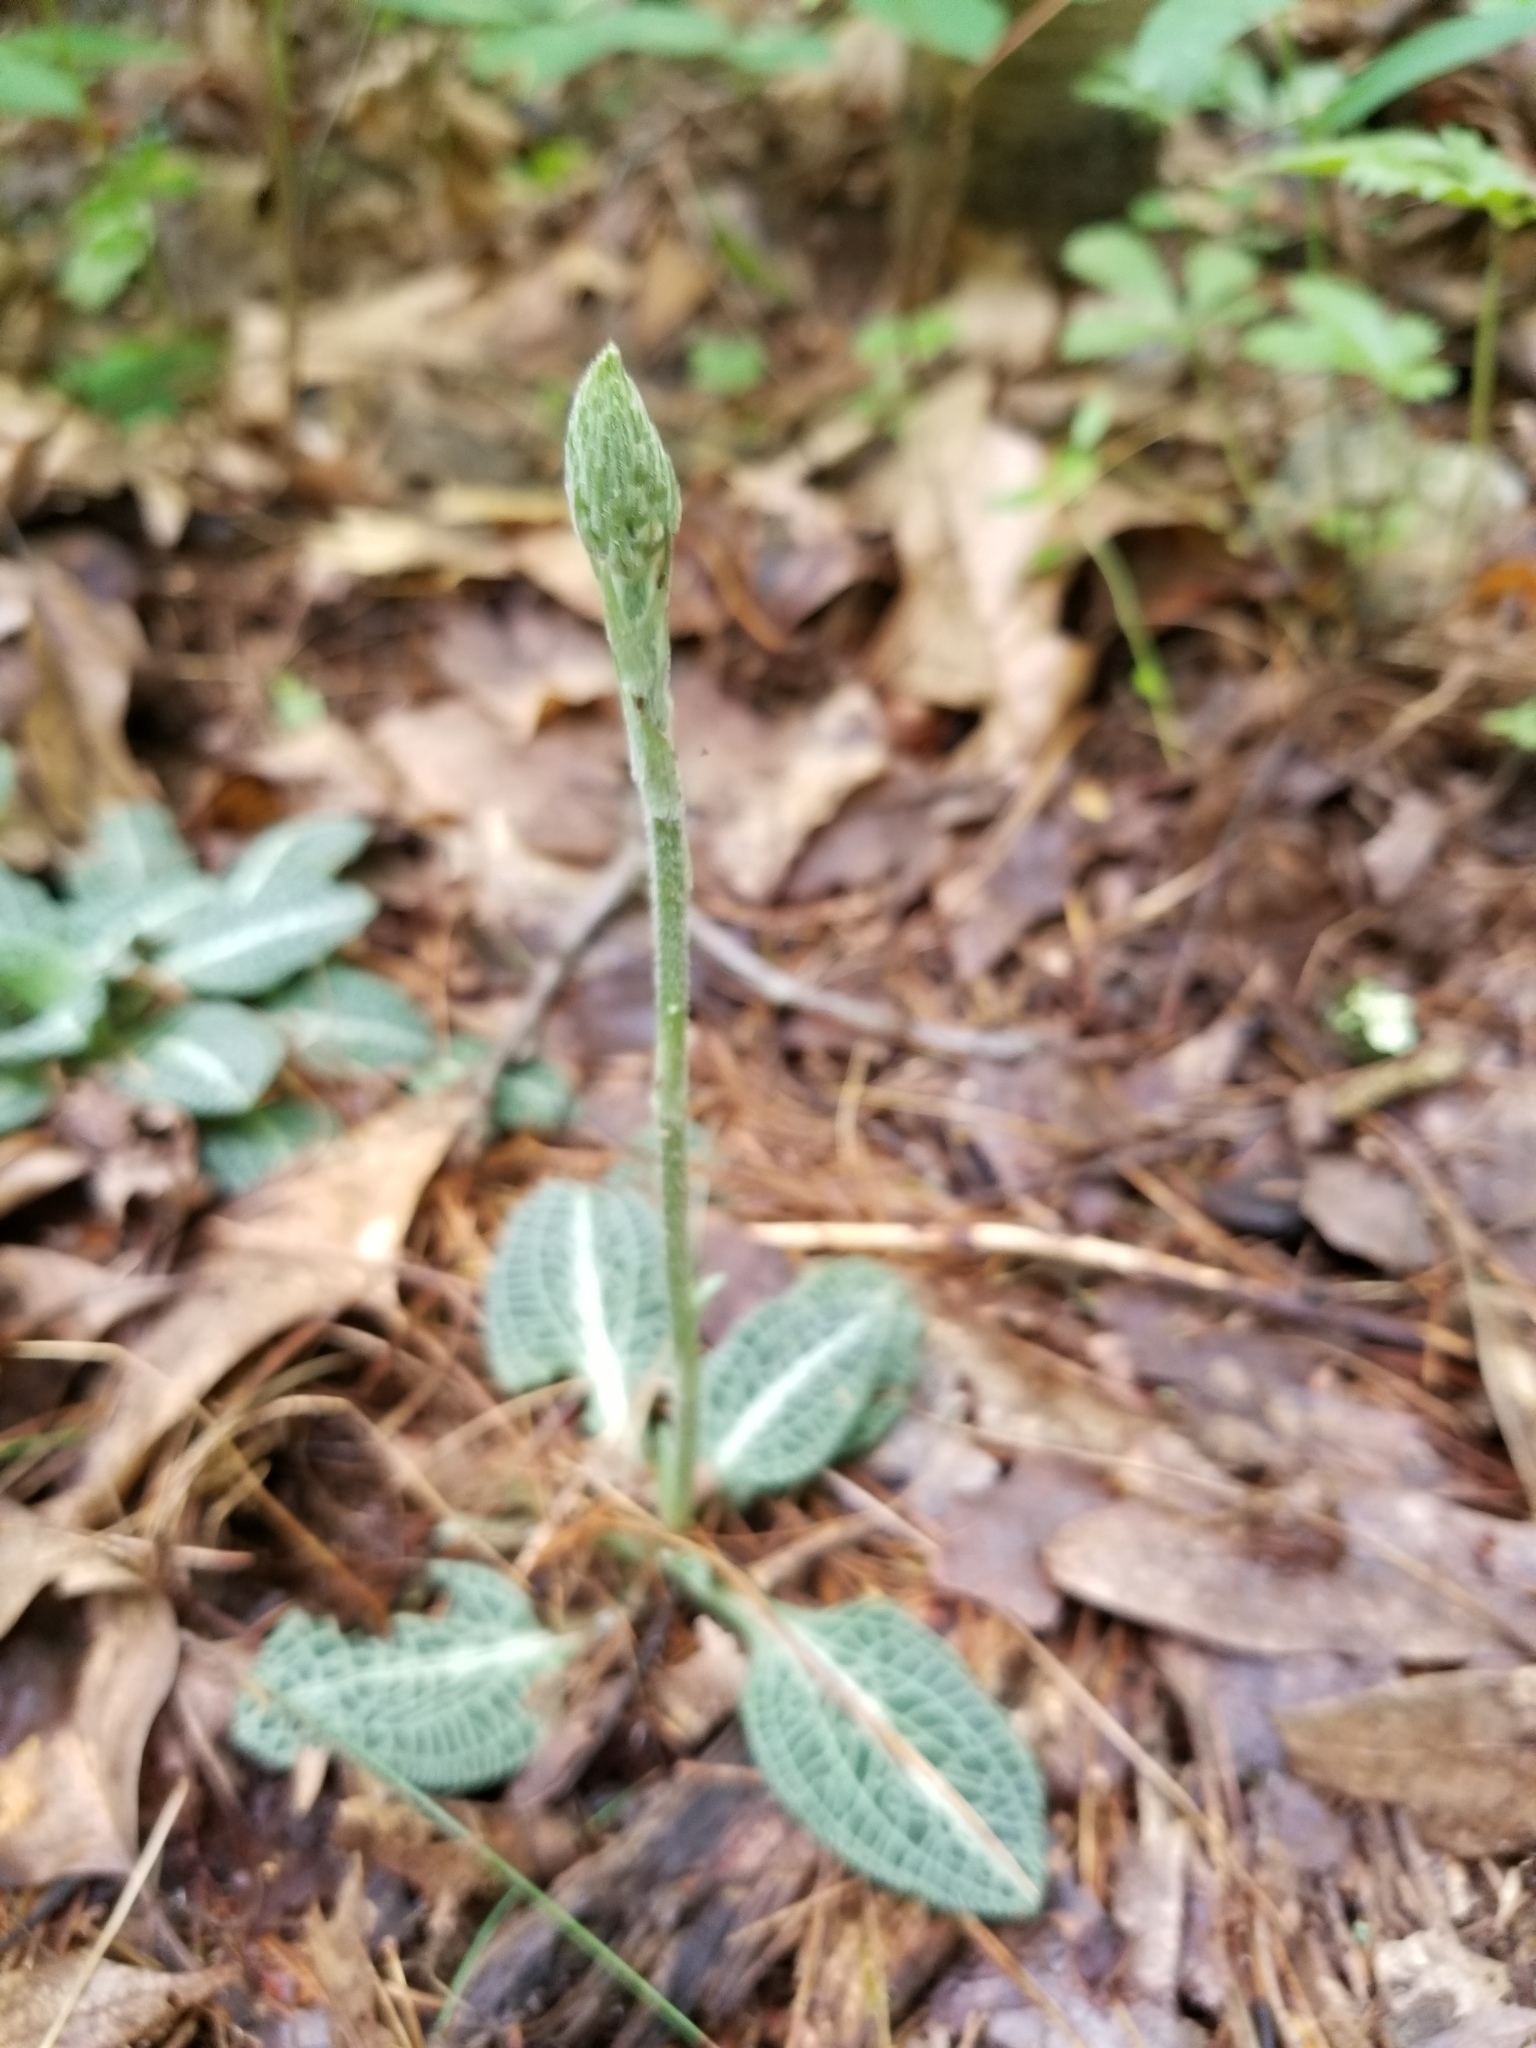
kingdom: Plantae
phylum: Tracheophyta
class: Liliopsida
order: Asparagales
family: Orchidaceae
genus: Goodyera
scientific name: Goodyera pubescens
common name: Downy rattlesnake-plantain
